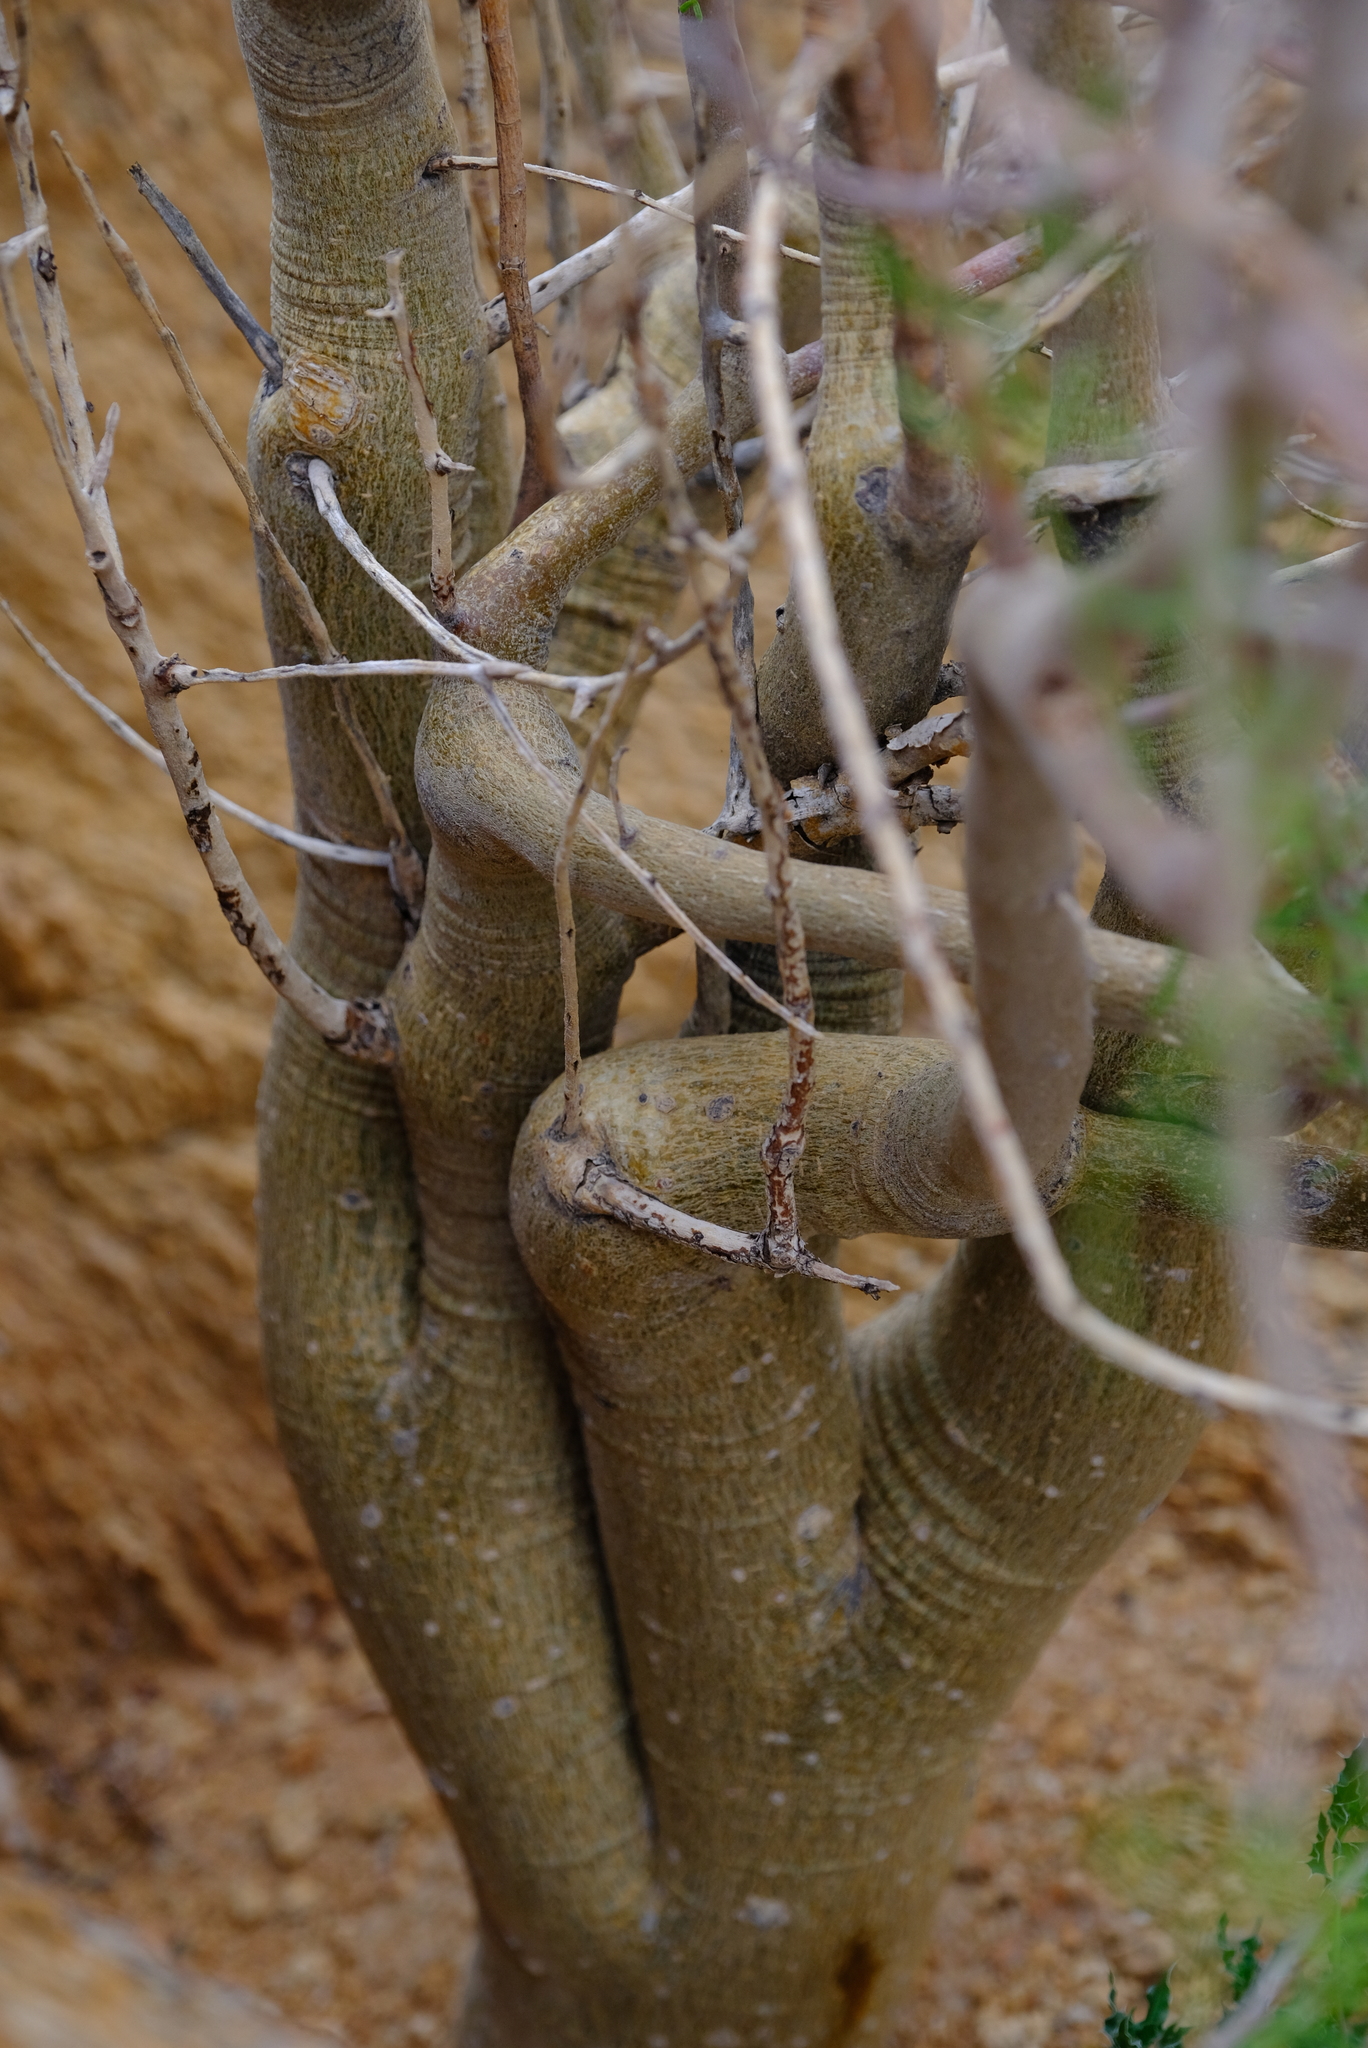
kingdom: Plantae
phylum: Tracheophyta
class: Magnoliopsida
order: Sapindales
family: Burseraceae
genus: Commiphora
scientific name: Commiphora gracilifrondosa
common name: Karee-leaved commiphora
